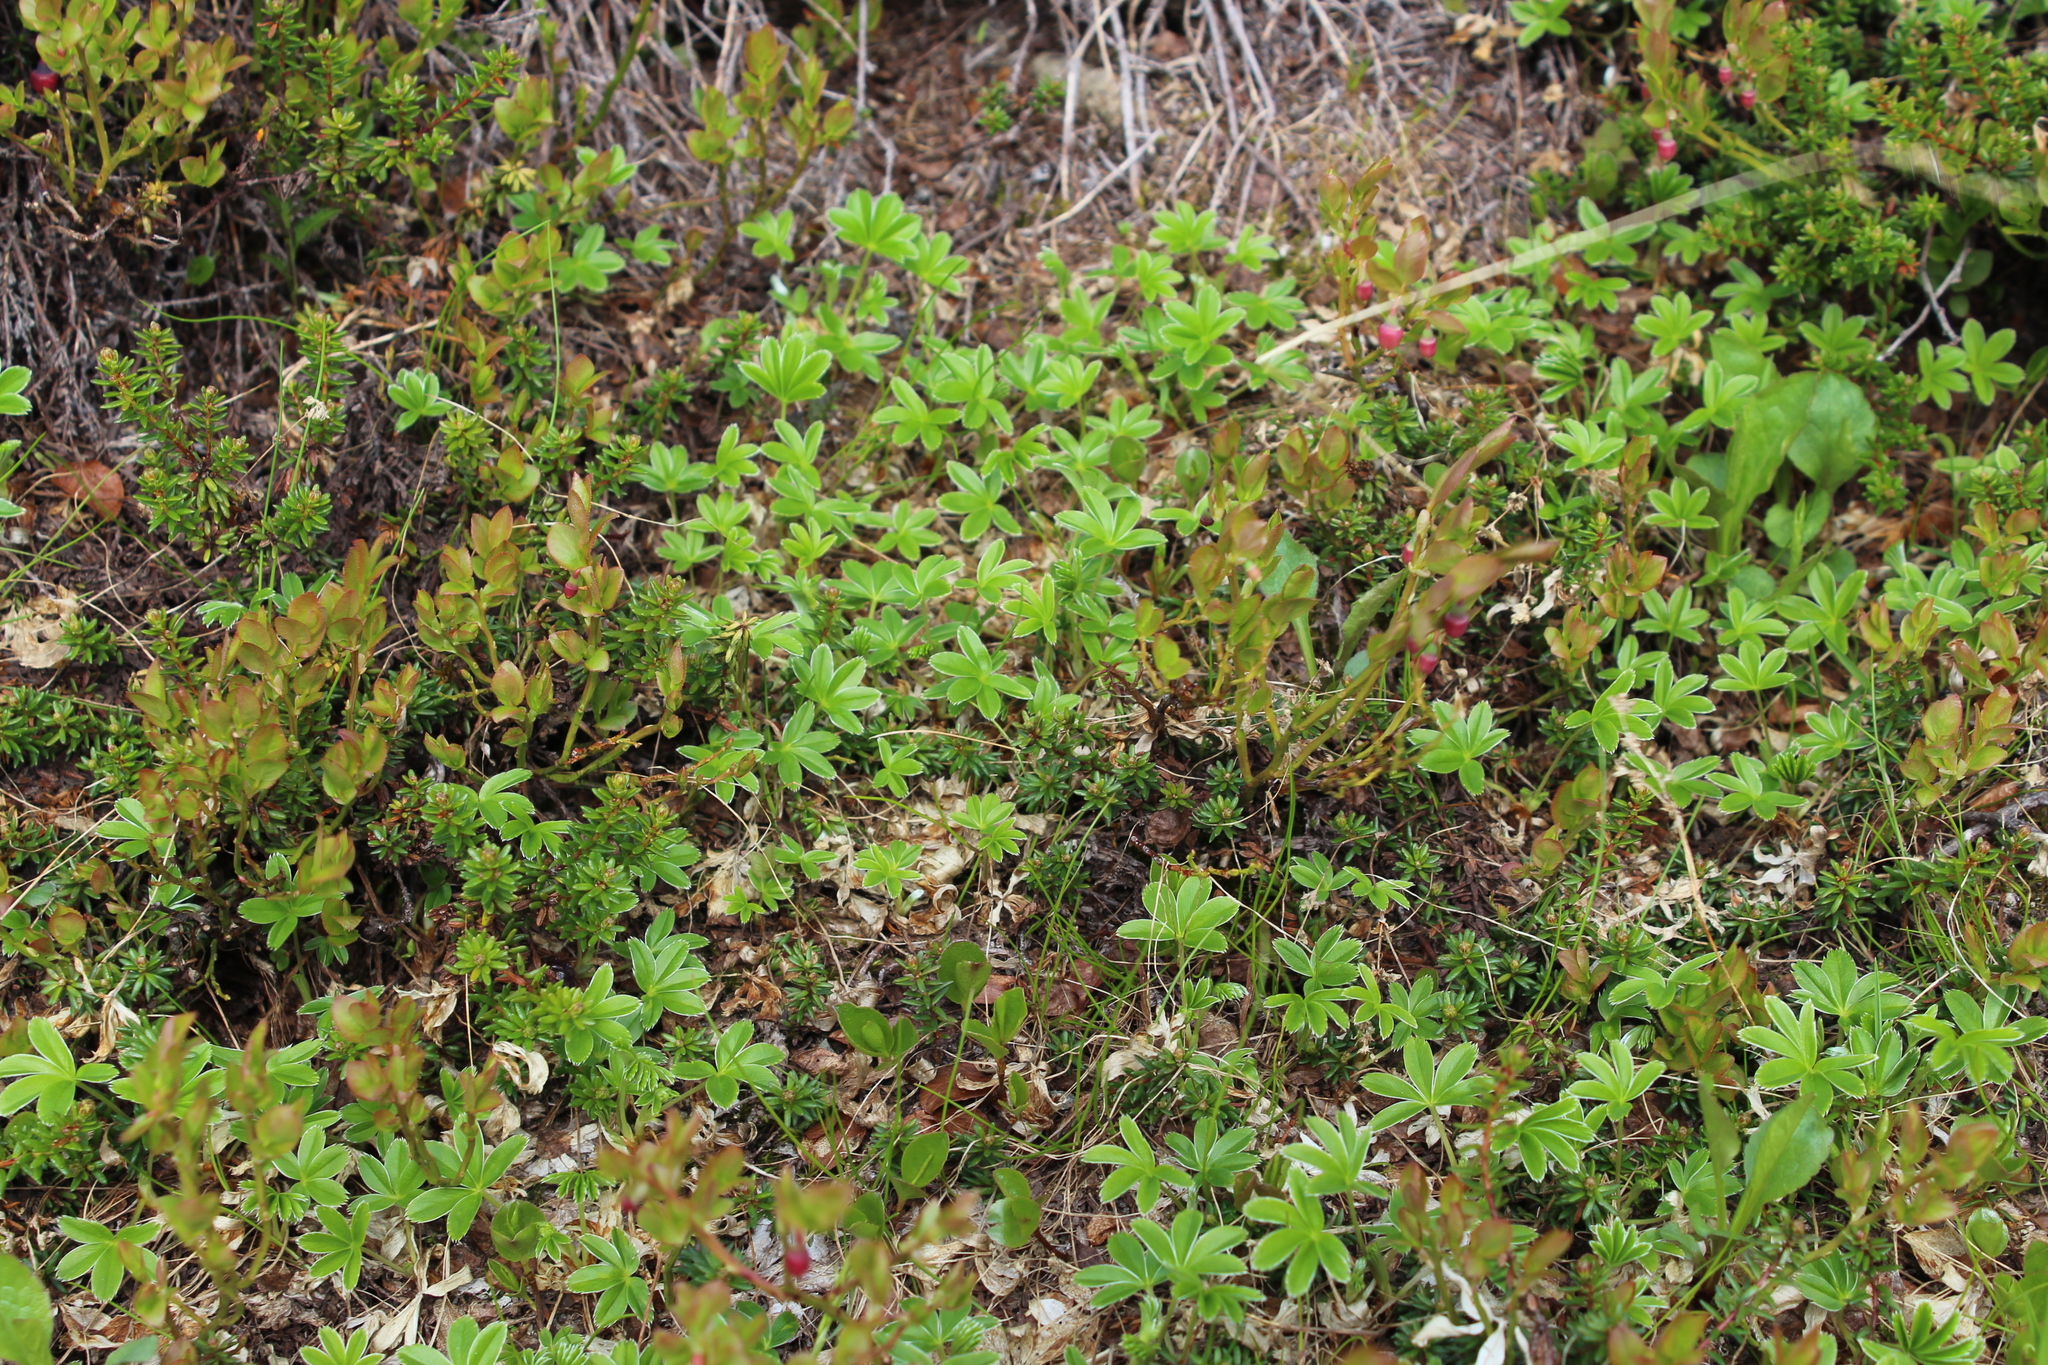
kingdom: Plantae
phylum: Tracheophyta
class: Magnoliopsida
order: Rosales
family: Rosaceae
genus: Alchemilla
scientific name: Alchemilla alpina
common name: Alpine lady's-mantle
